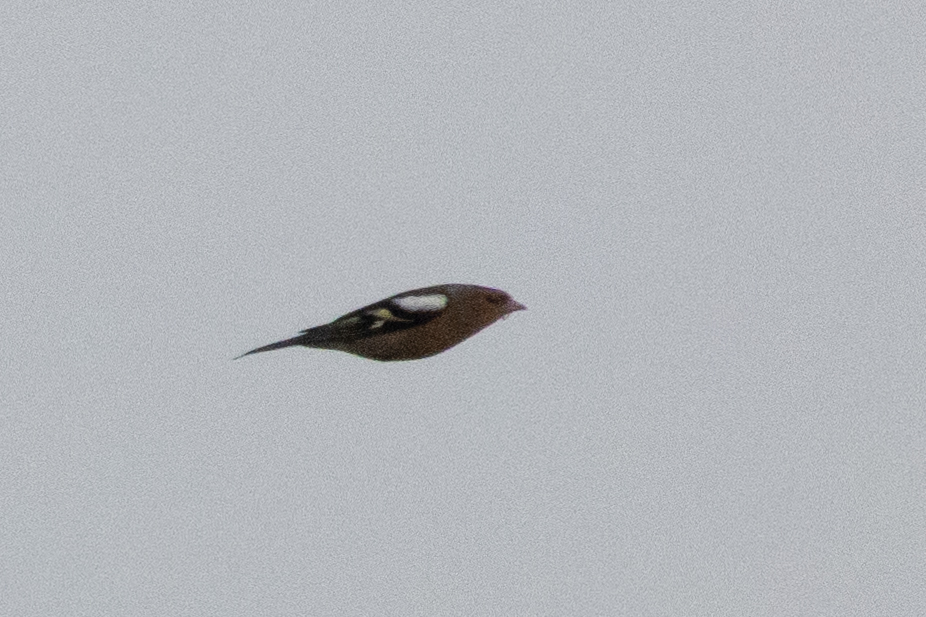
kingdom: Animalia
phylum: Chordata
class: Aves
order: Passeriformes
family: Fringillidae
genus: Fringilla
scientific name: Fringilla coelebs
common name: Common chaffinch
